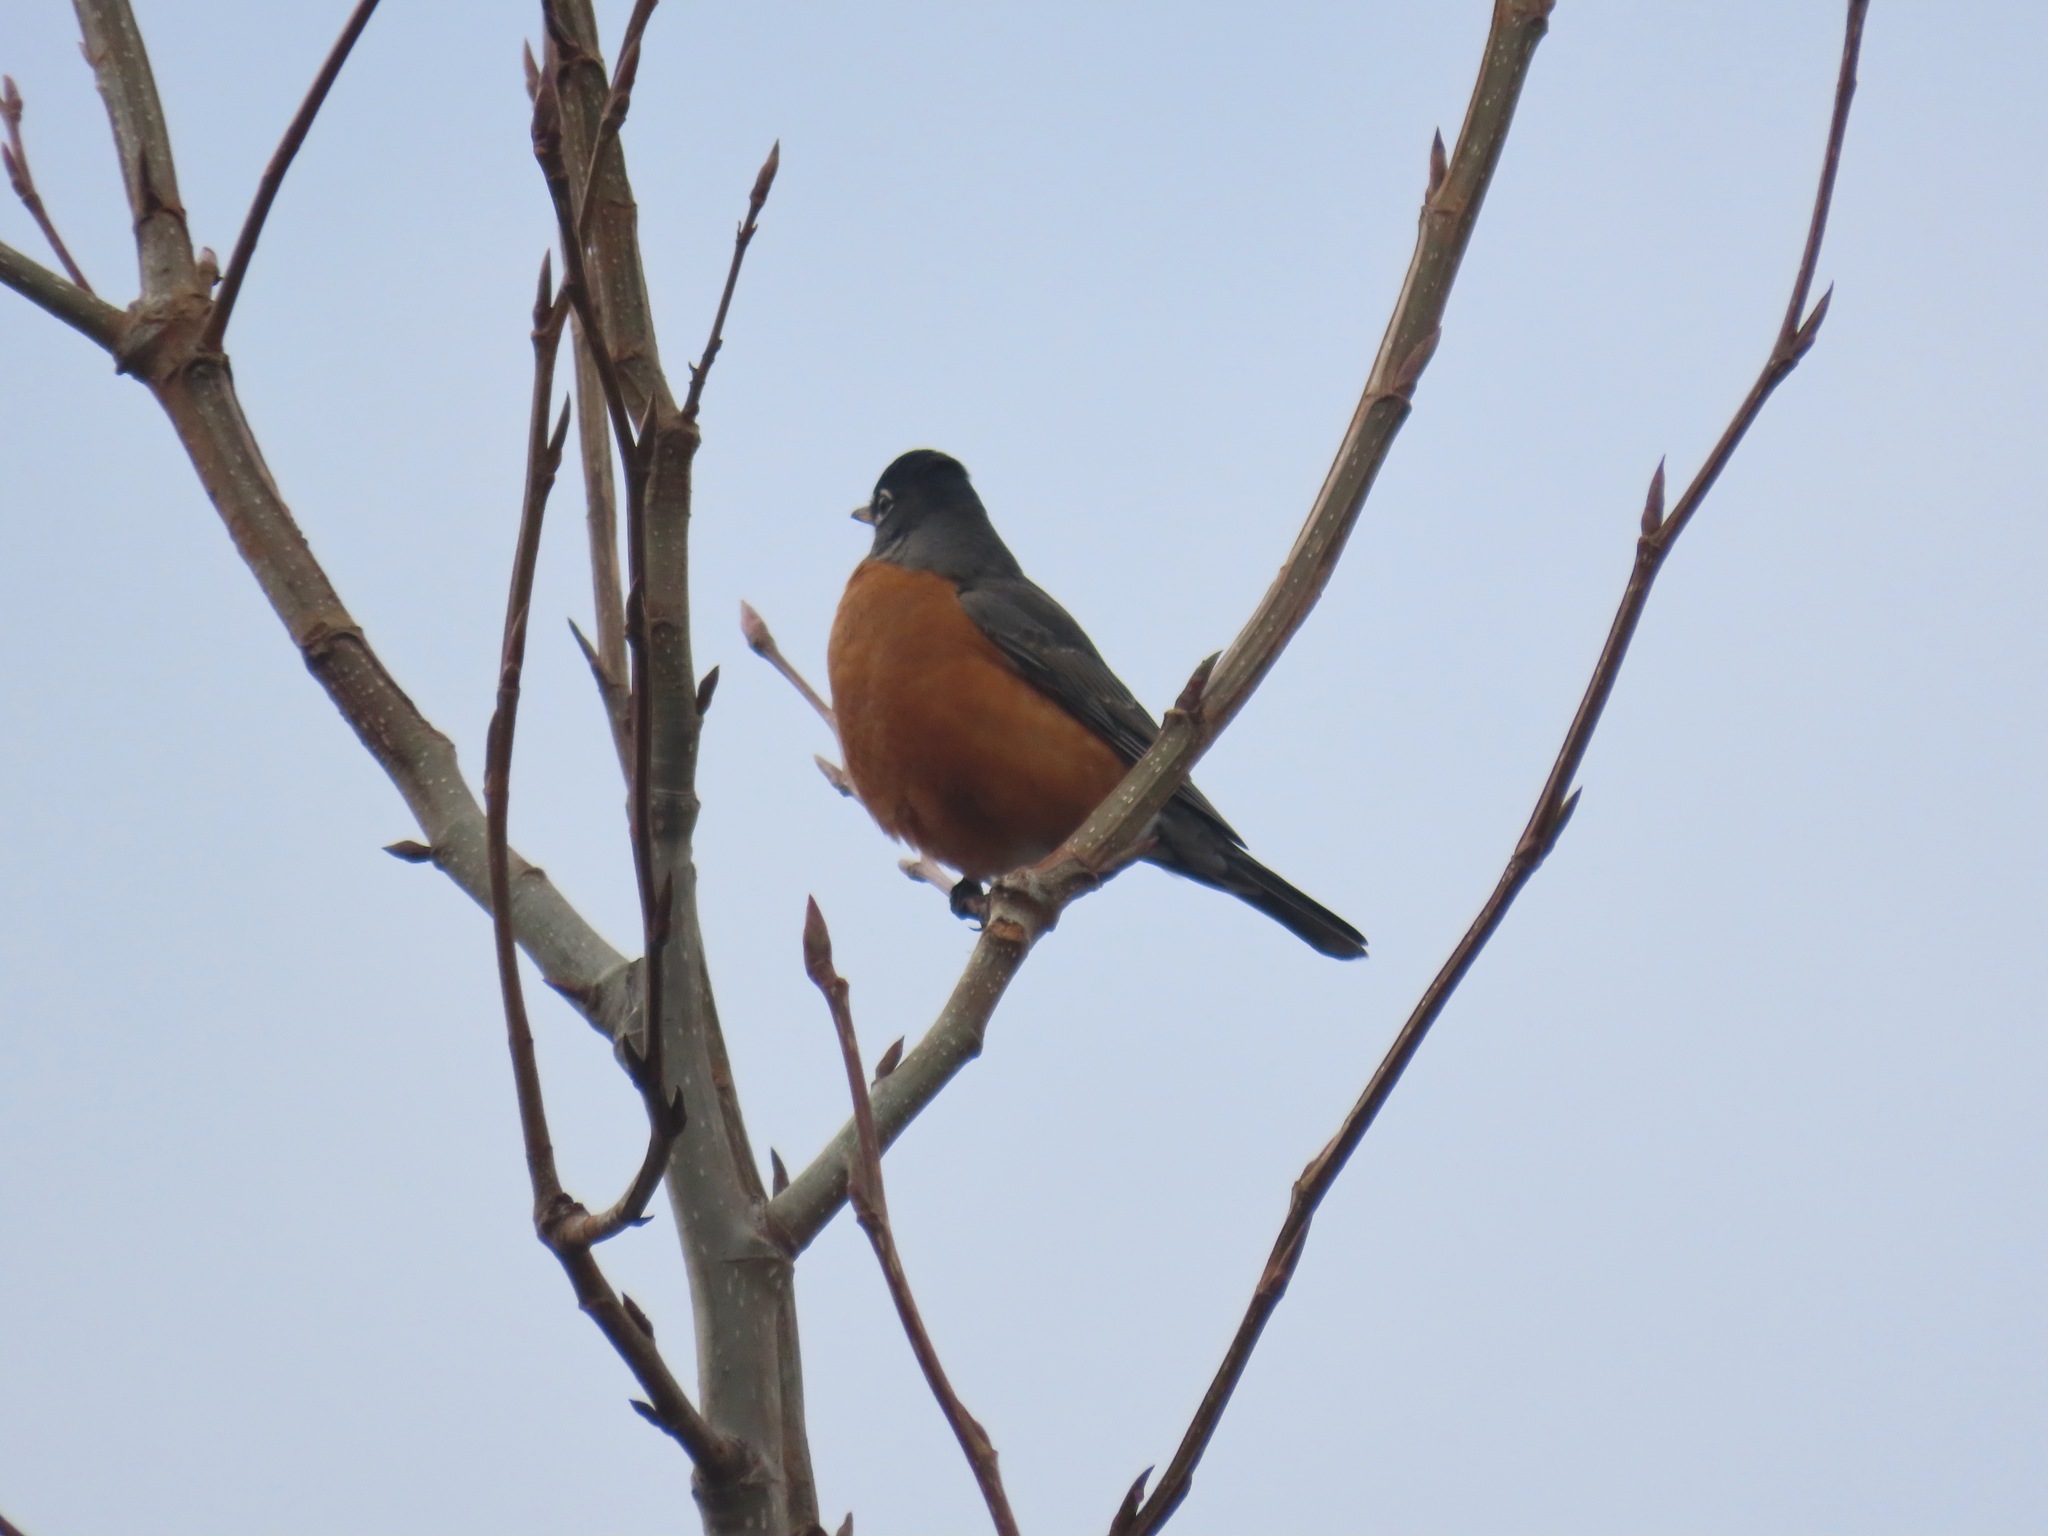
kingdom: Animalia
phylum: Chordata
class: Aves
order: Passeriformes
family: Turdidae
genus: Turdus
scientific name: Turdus migratorius
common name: American robin
